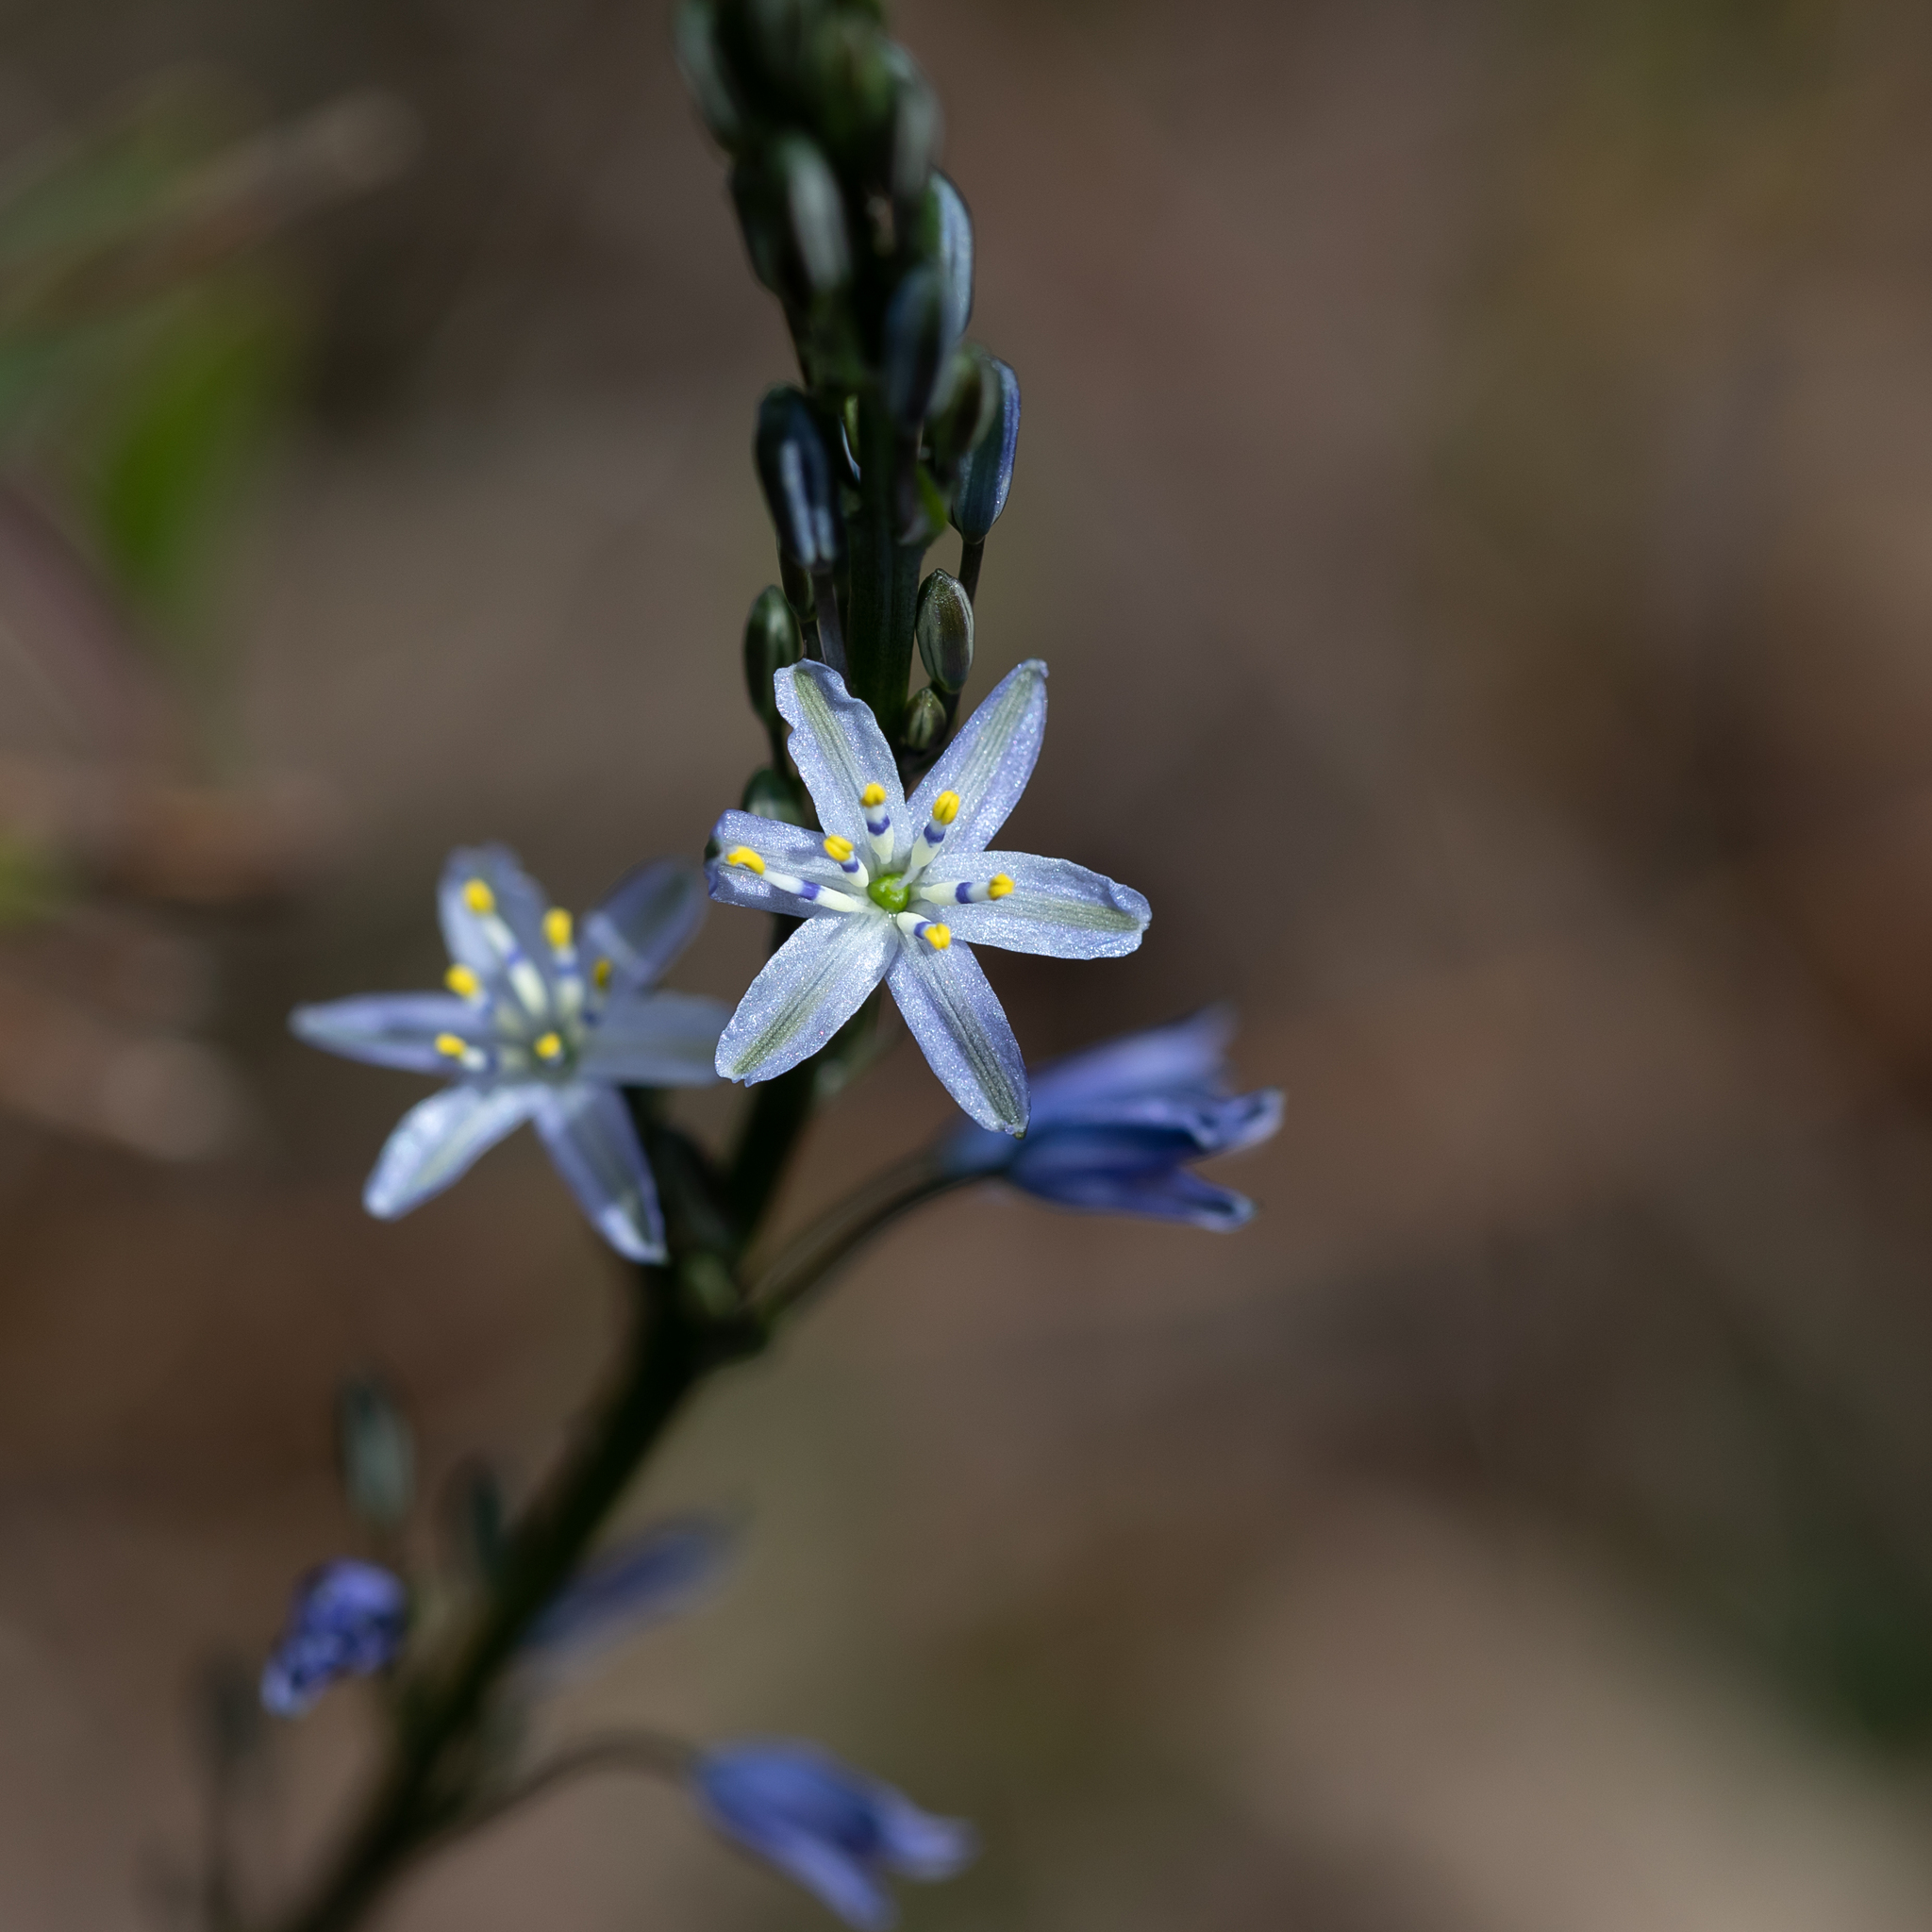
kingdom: Plantae
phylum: Tracheophyta
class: Liliopsida
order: Asparagales
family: Asphodelaceae
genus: Caesia
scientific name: Caesia calliantha
